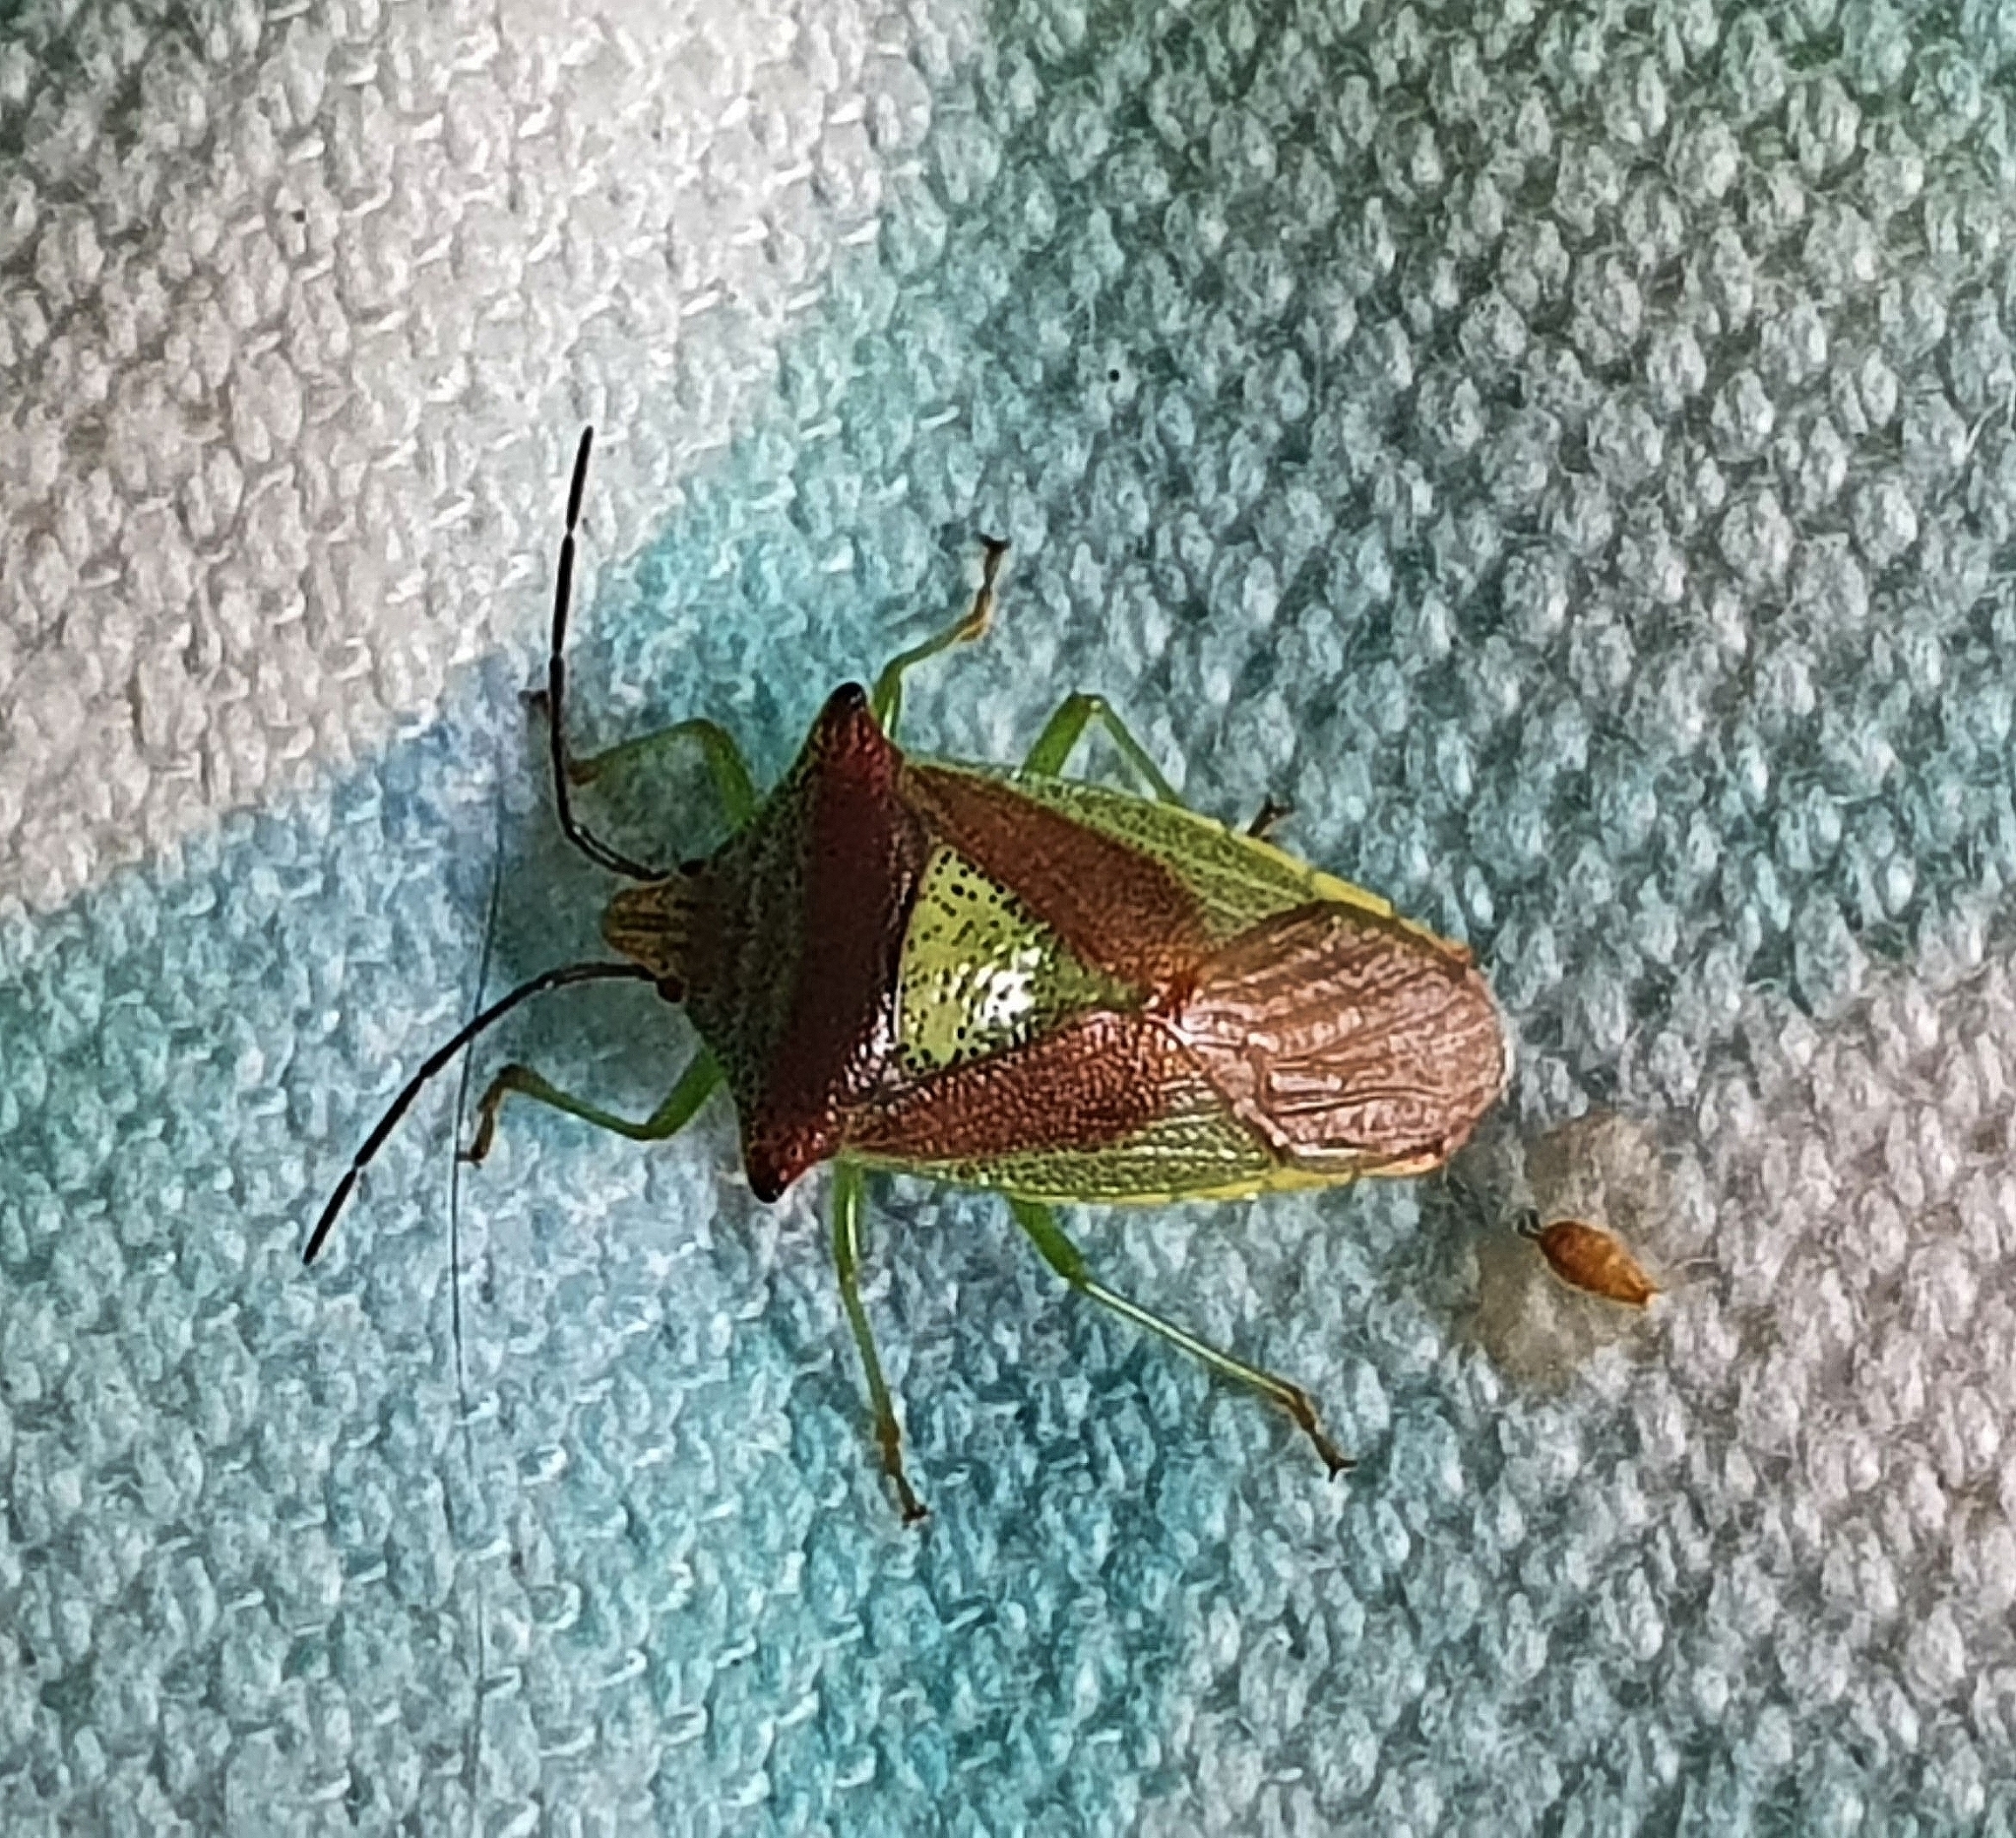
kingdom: Animalia
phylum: Arthropoda
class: Insecta
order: Hemiptera
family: Acanthosomatidae
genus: Acanthosoma
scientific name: Acanthosoma haemorrhoidale
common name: Hawthorn shieldbug
